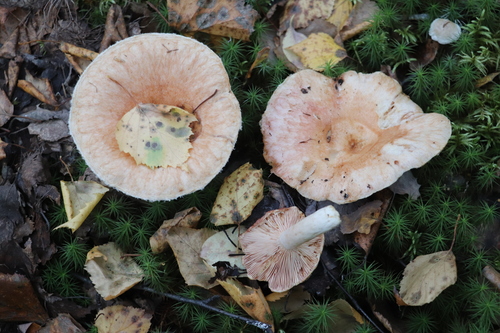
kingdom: Fungi
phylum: Basidiomycota
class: Agaricomycetes
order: Russulales
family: Russulaceae
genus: Lactarius
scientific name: Lactarius torminosus
